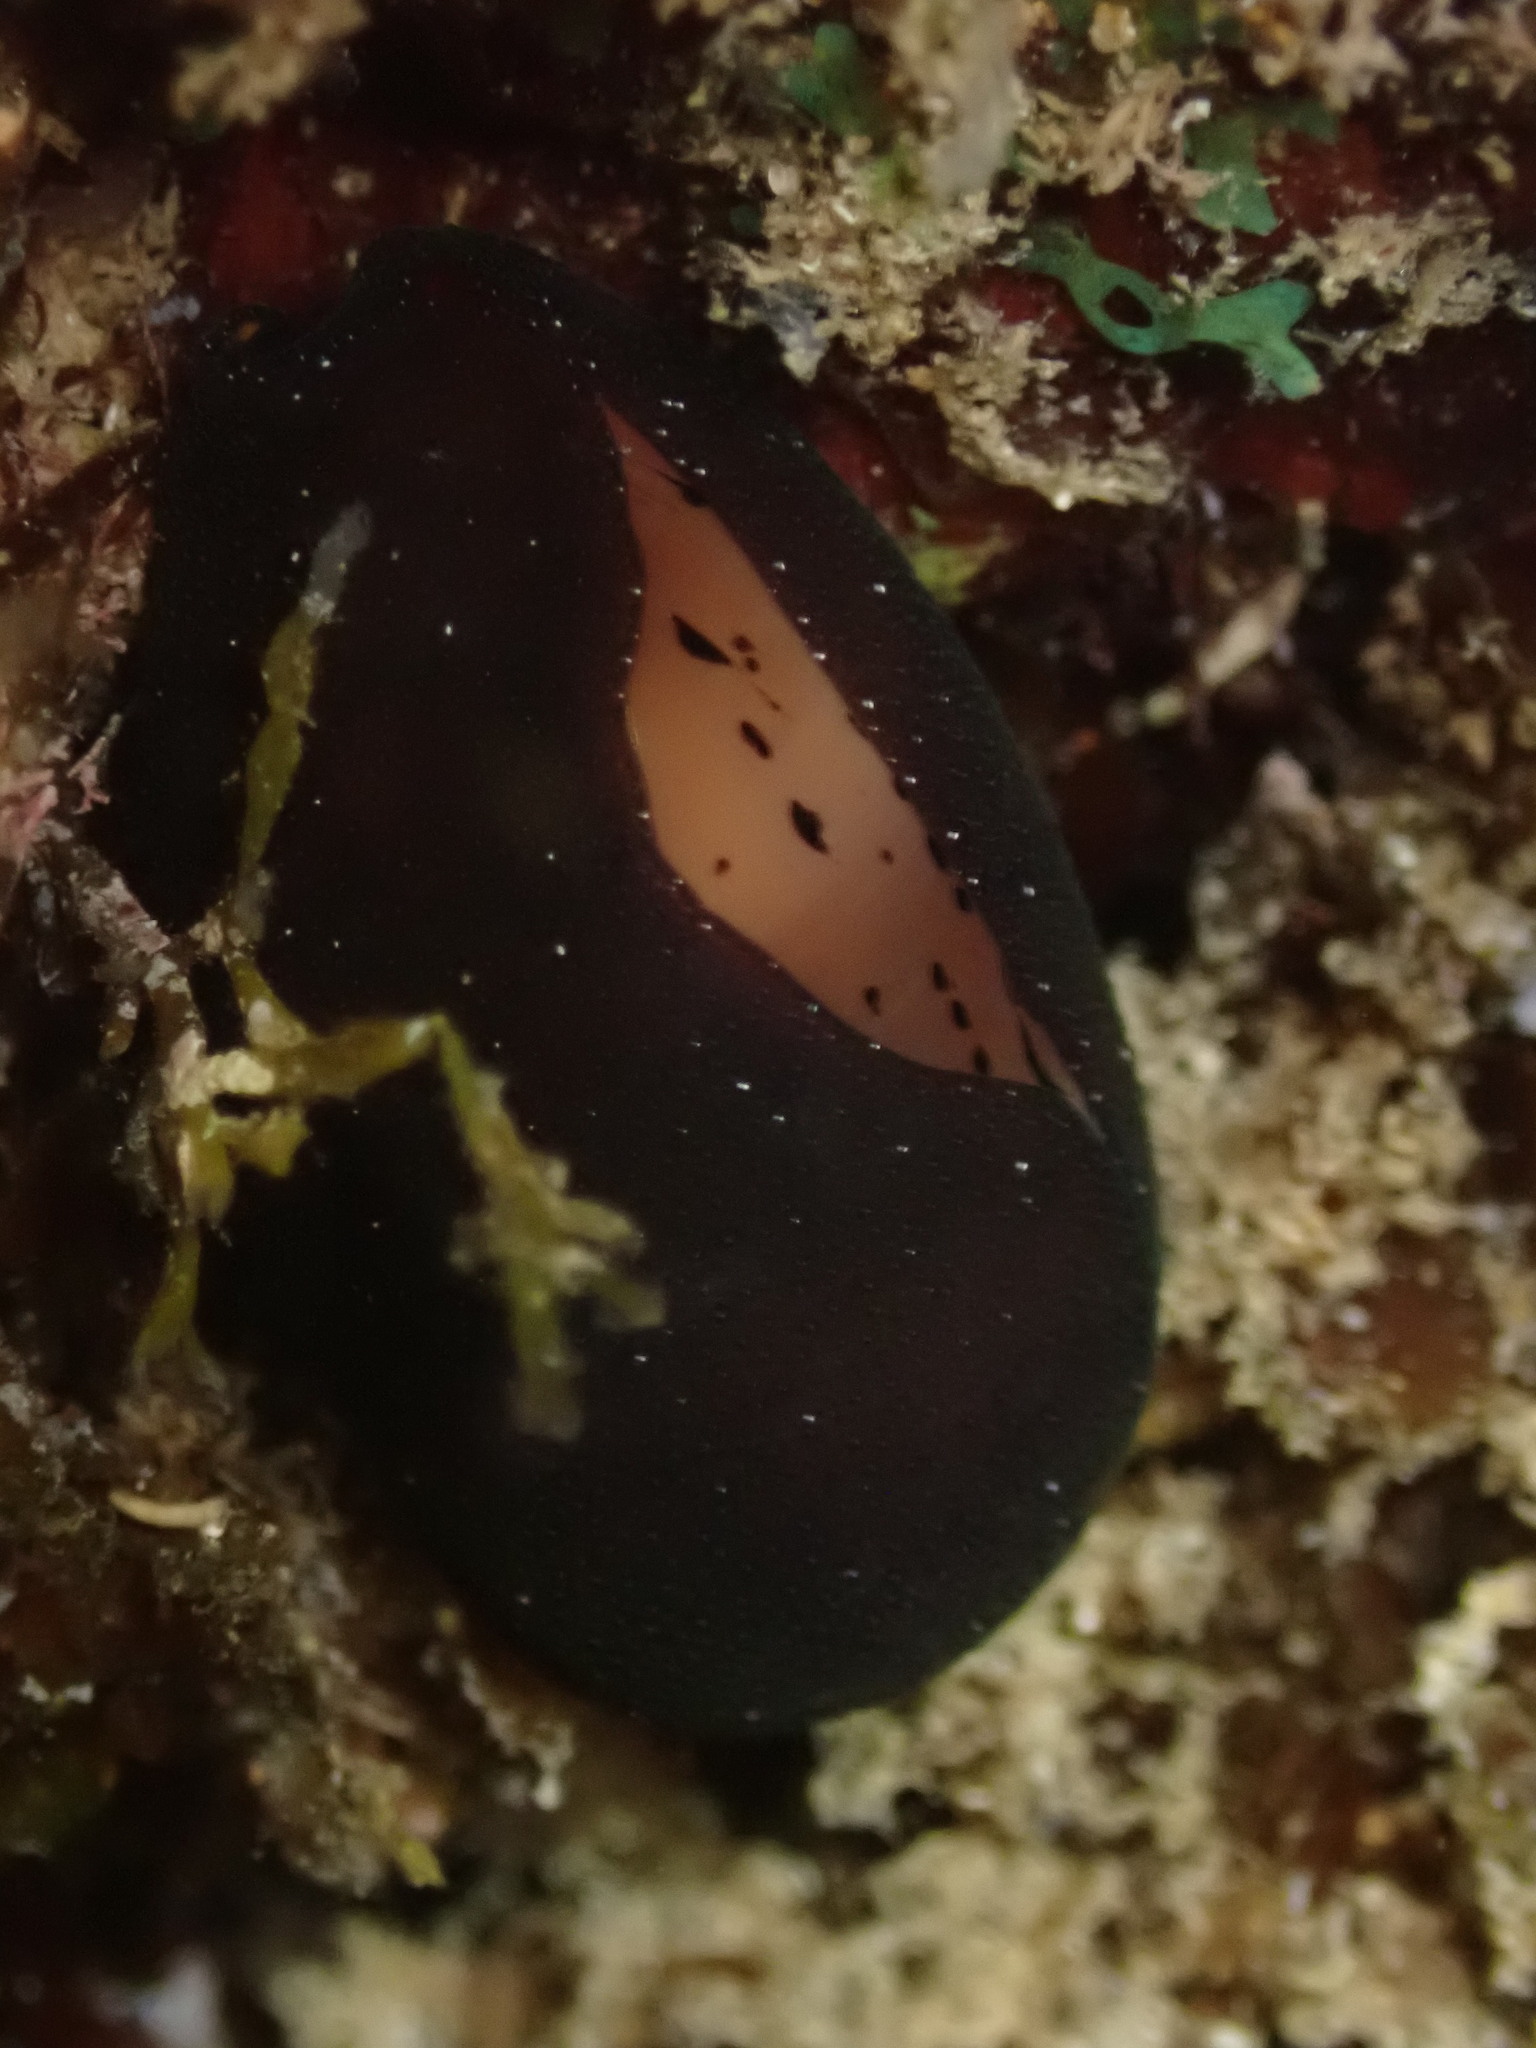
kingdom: Animalia
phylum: Mollusca
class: Gastropoda
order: Littorinimorpha
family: Cypraeidae
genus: Luria
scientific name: Luria isabella
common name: Isabell cowry
